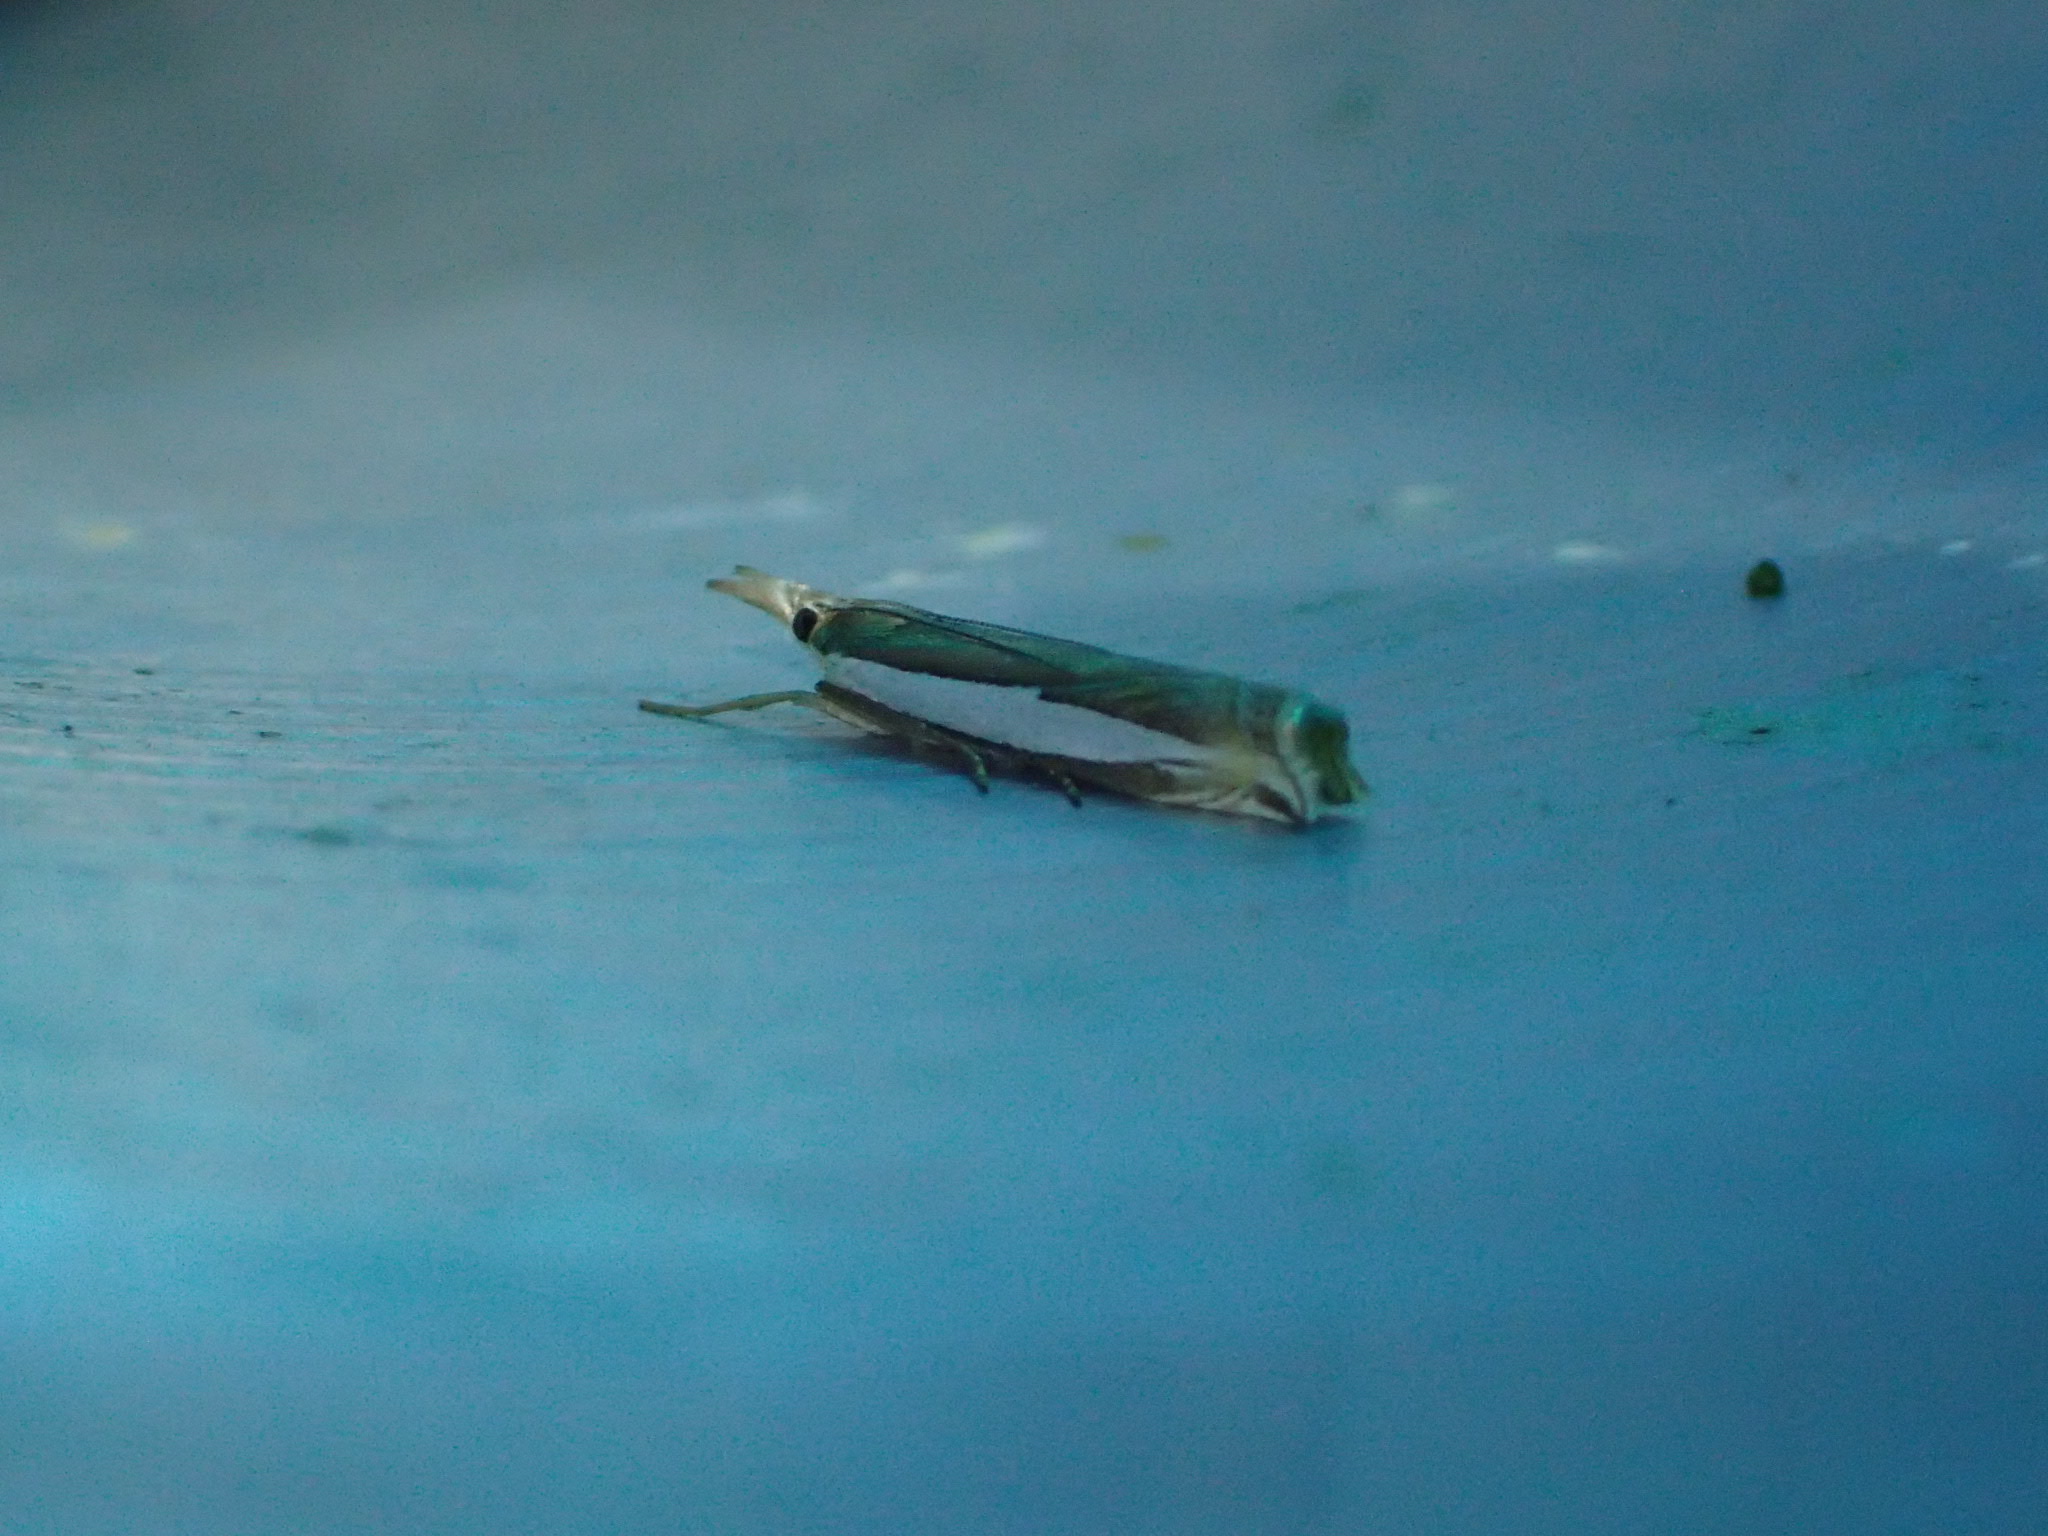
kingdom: Animalia
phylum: Arthropoda
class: Insecta
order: Lepidoptera
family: Crambidae
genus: Crambus
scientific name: Crambus leachellus
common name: Leach's grass-veneer
